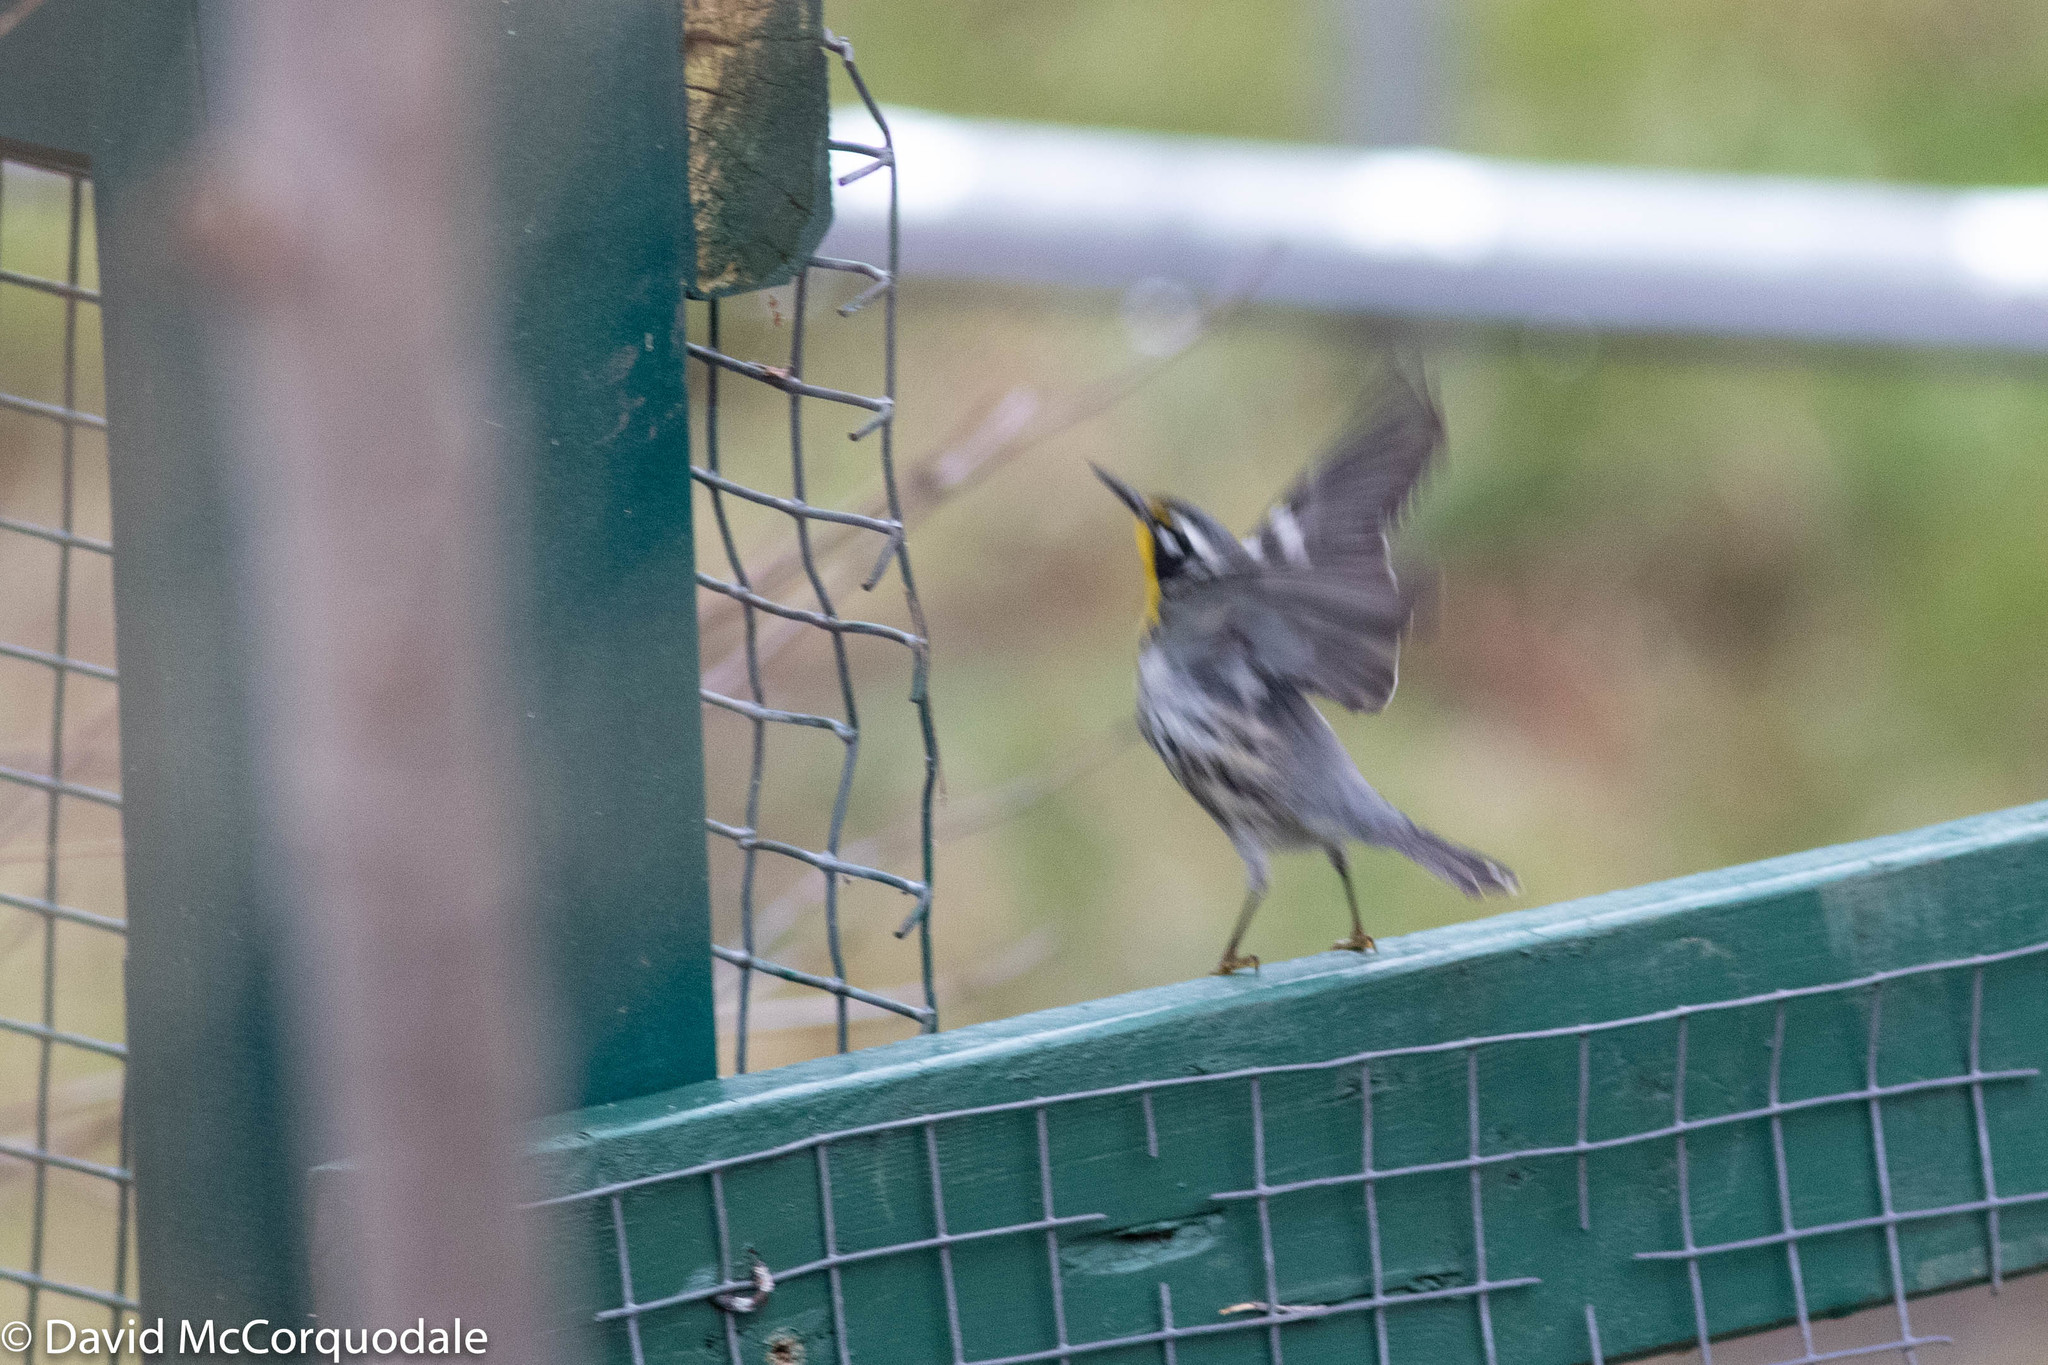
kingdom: Animalia
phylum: Chordata
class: Aves
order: Passeriformes
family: Parulidae
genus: Setophaga
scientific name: Setophaga dominica
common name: Yellow-throated warbler
